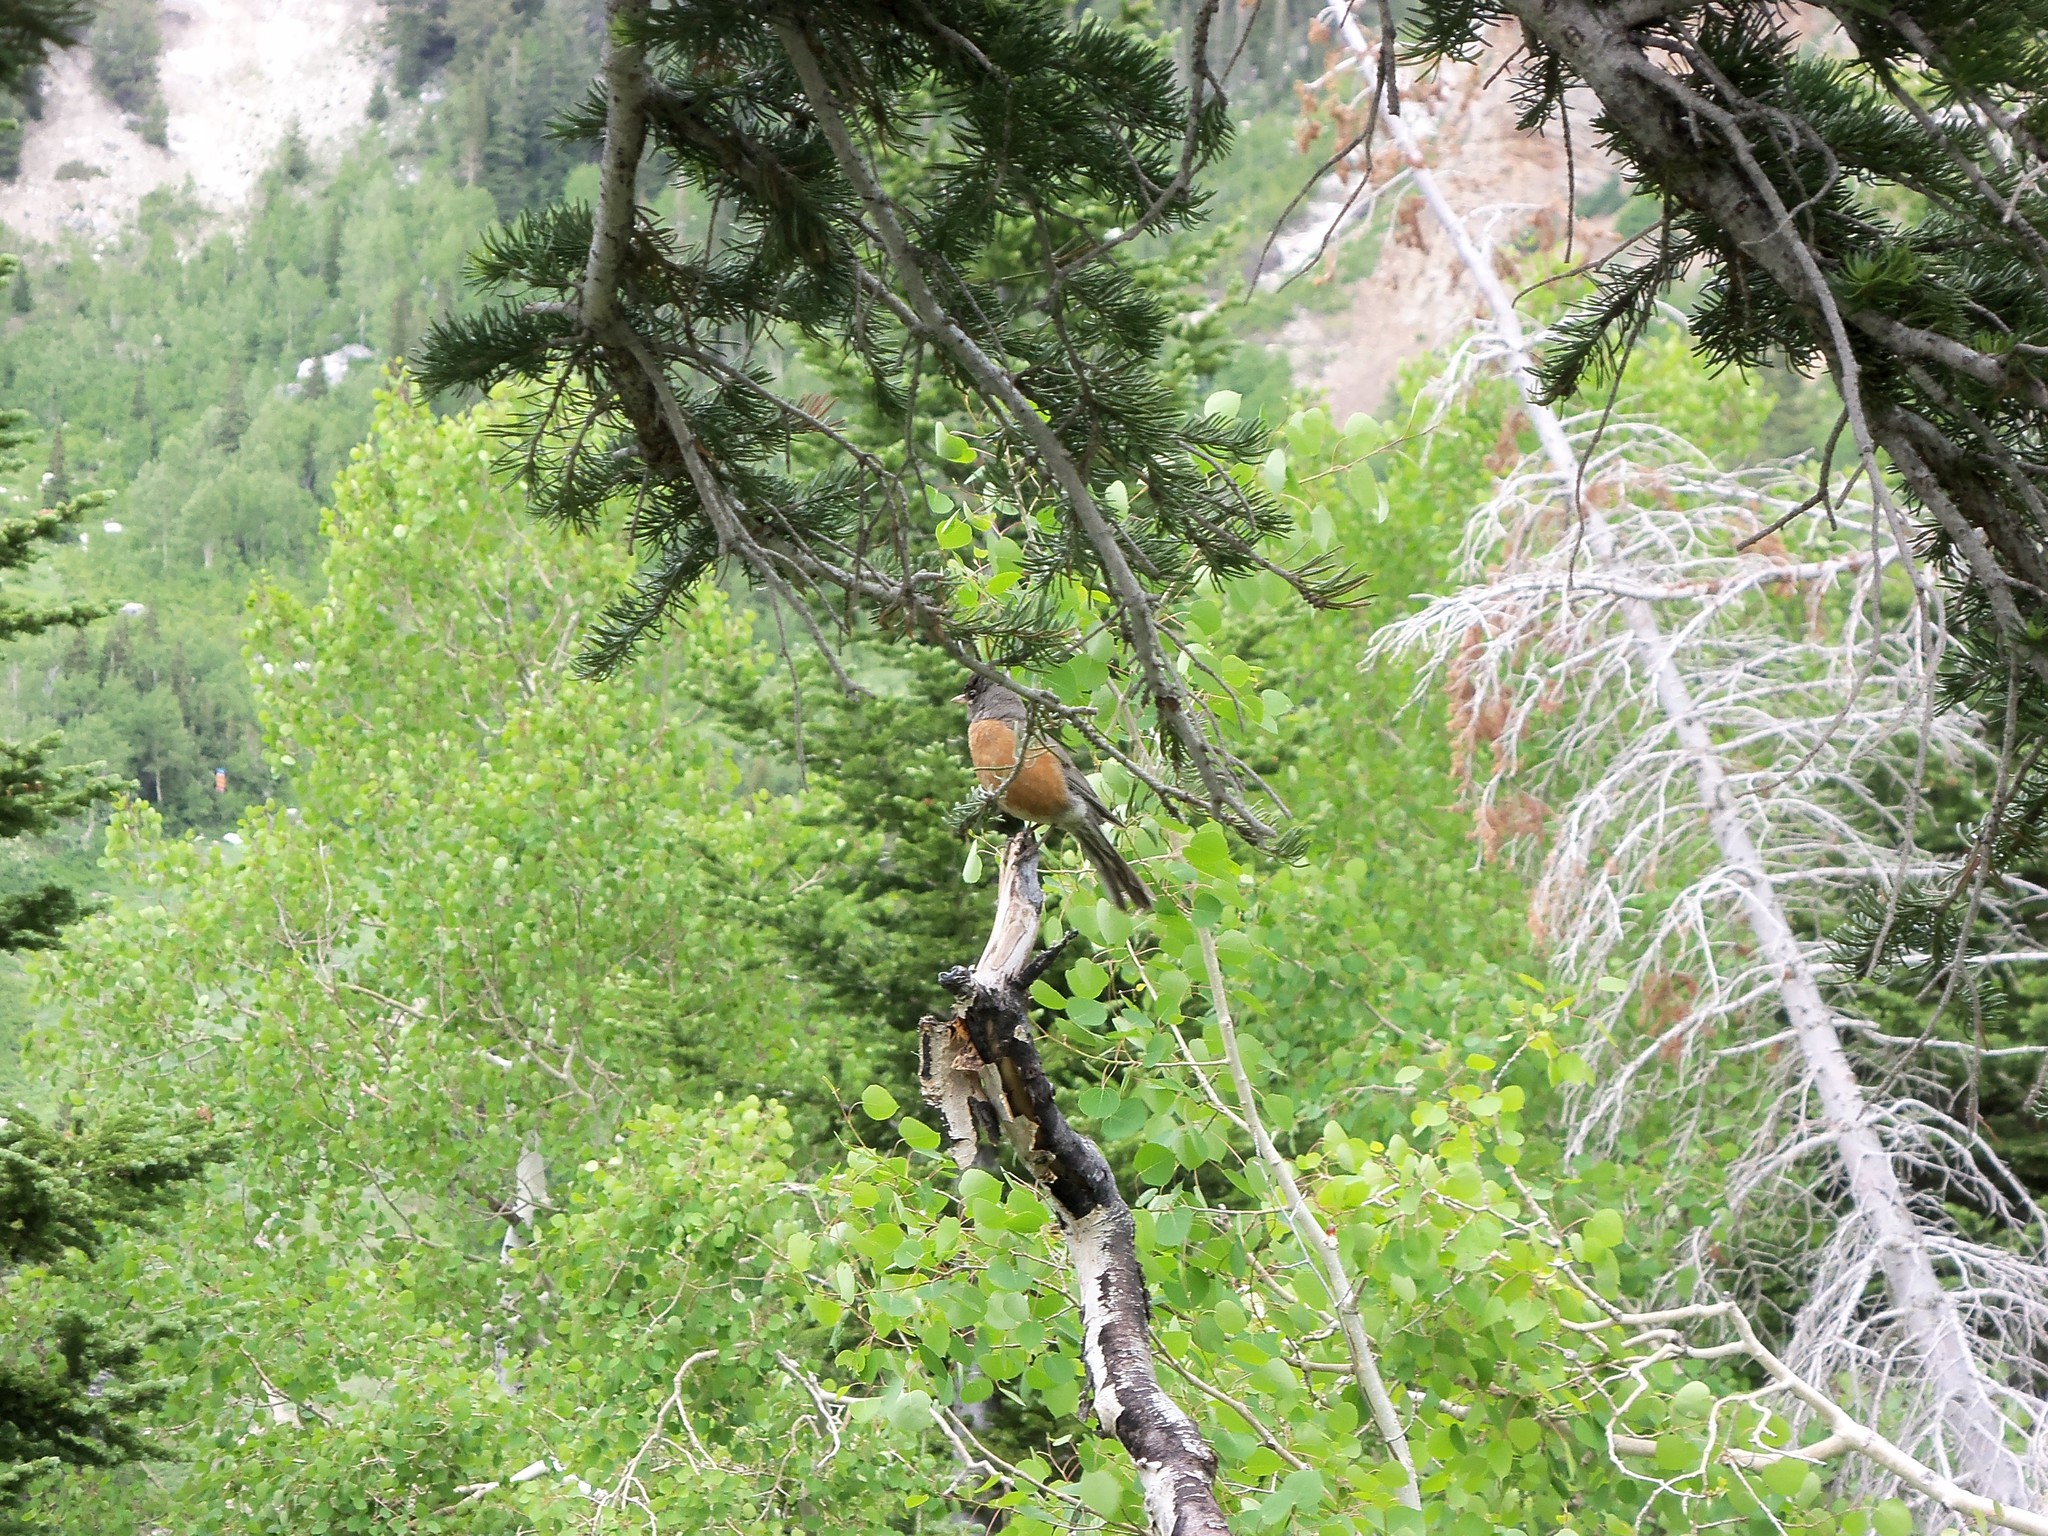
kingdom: Animalia
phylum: Chordata
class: Aves
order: Passeriformes
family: Turdidae
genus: Turdus
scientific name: Turdus migratorius
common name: American robin
